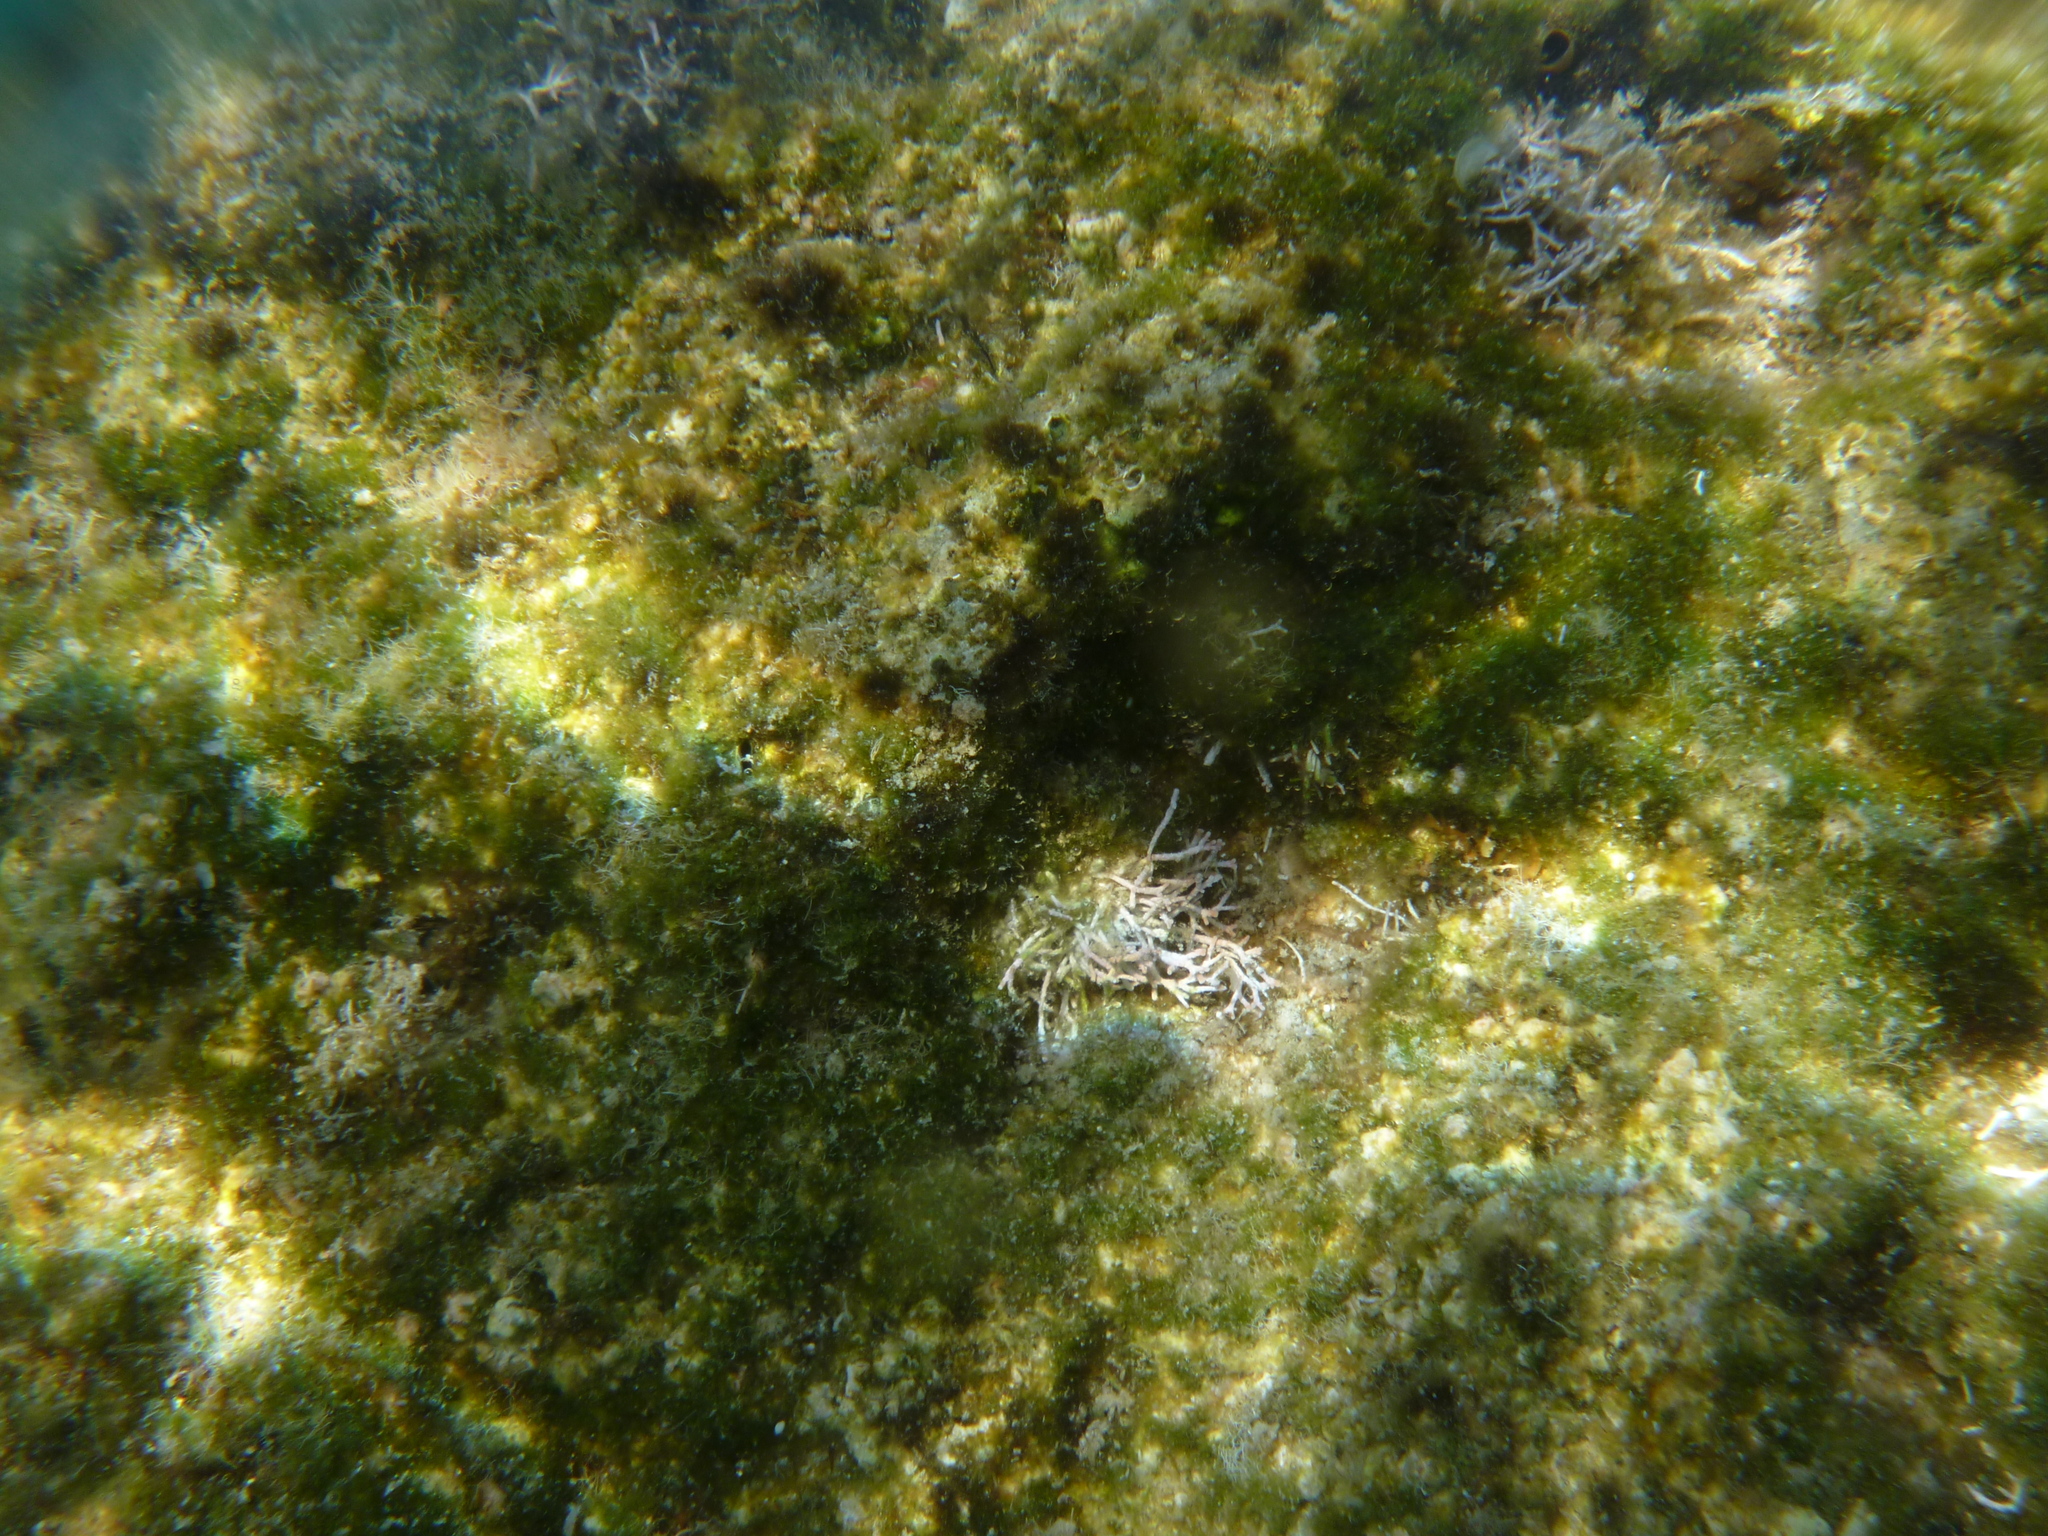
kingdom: Plantae
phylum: Rhodophyta
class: Florideophyceae
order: Corallinales
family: Lithophyllaceae
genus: Amphiroa
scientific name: Amphiroa rigida
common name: Y-twig algae
